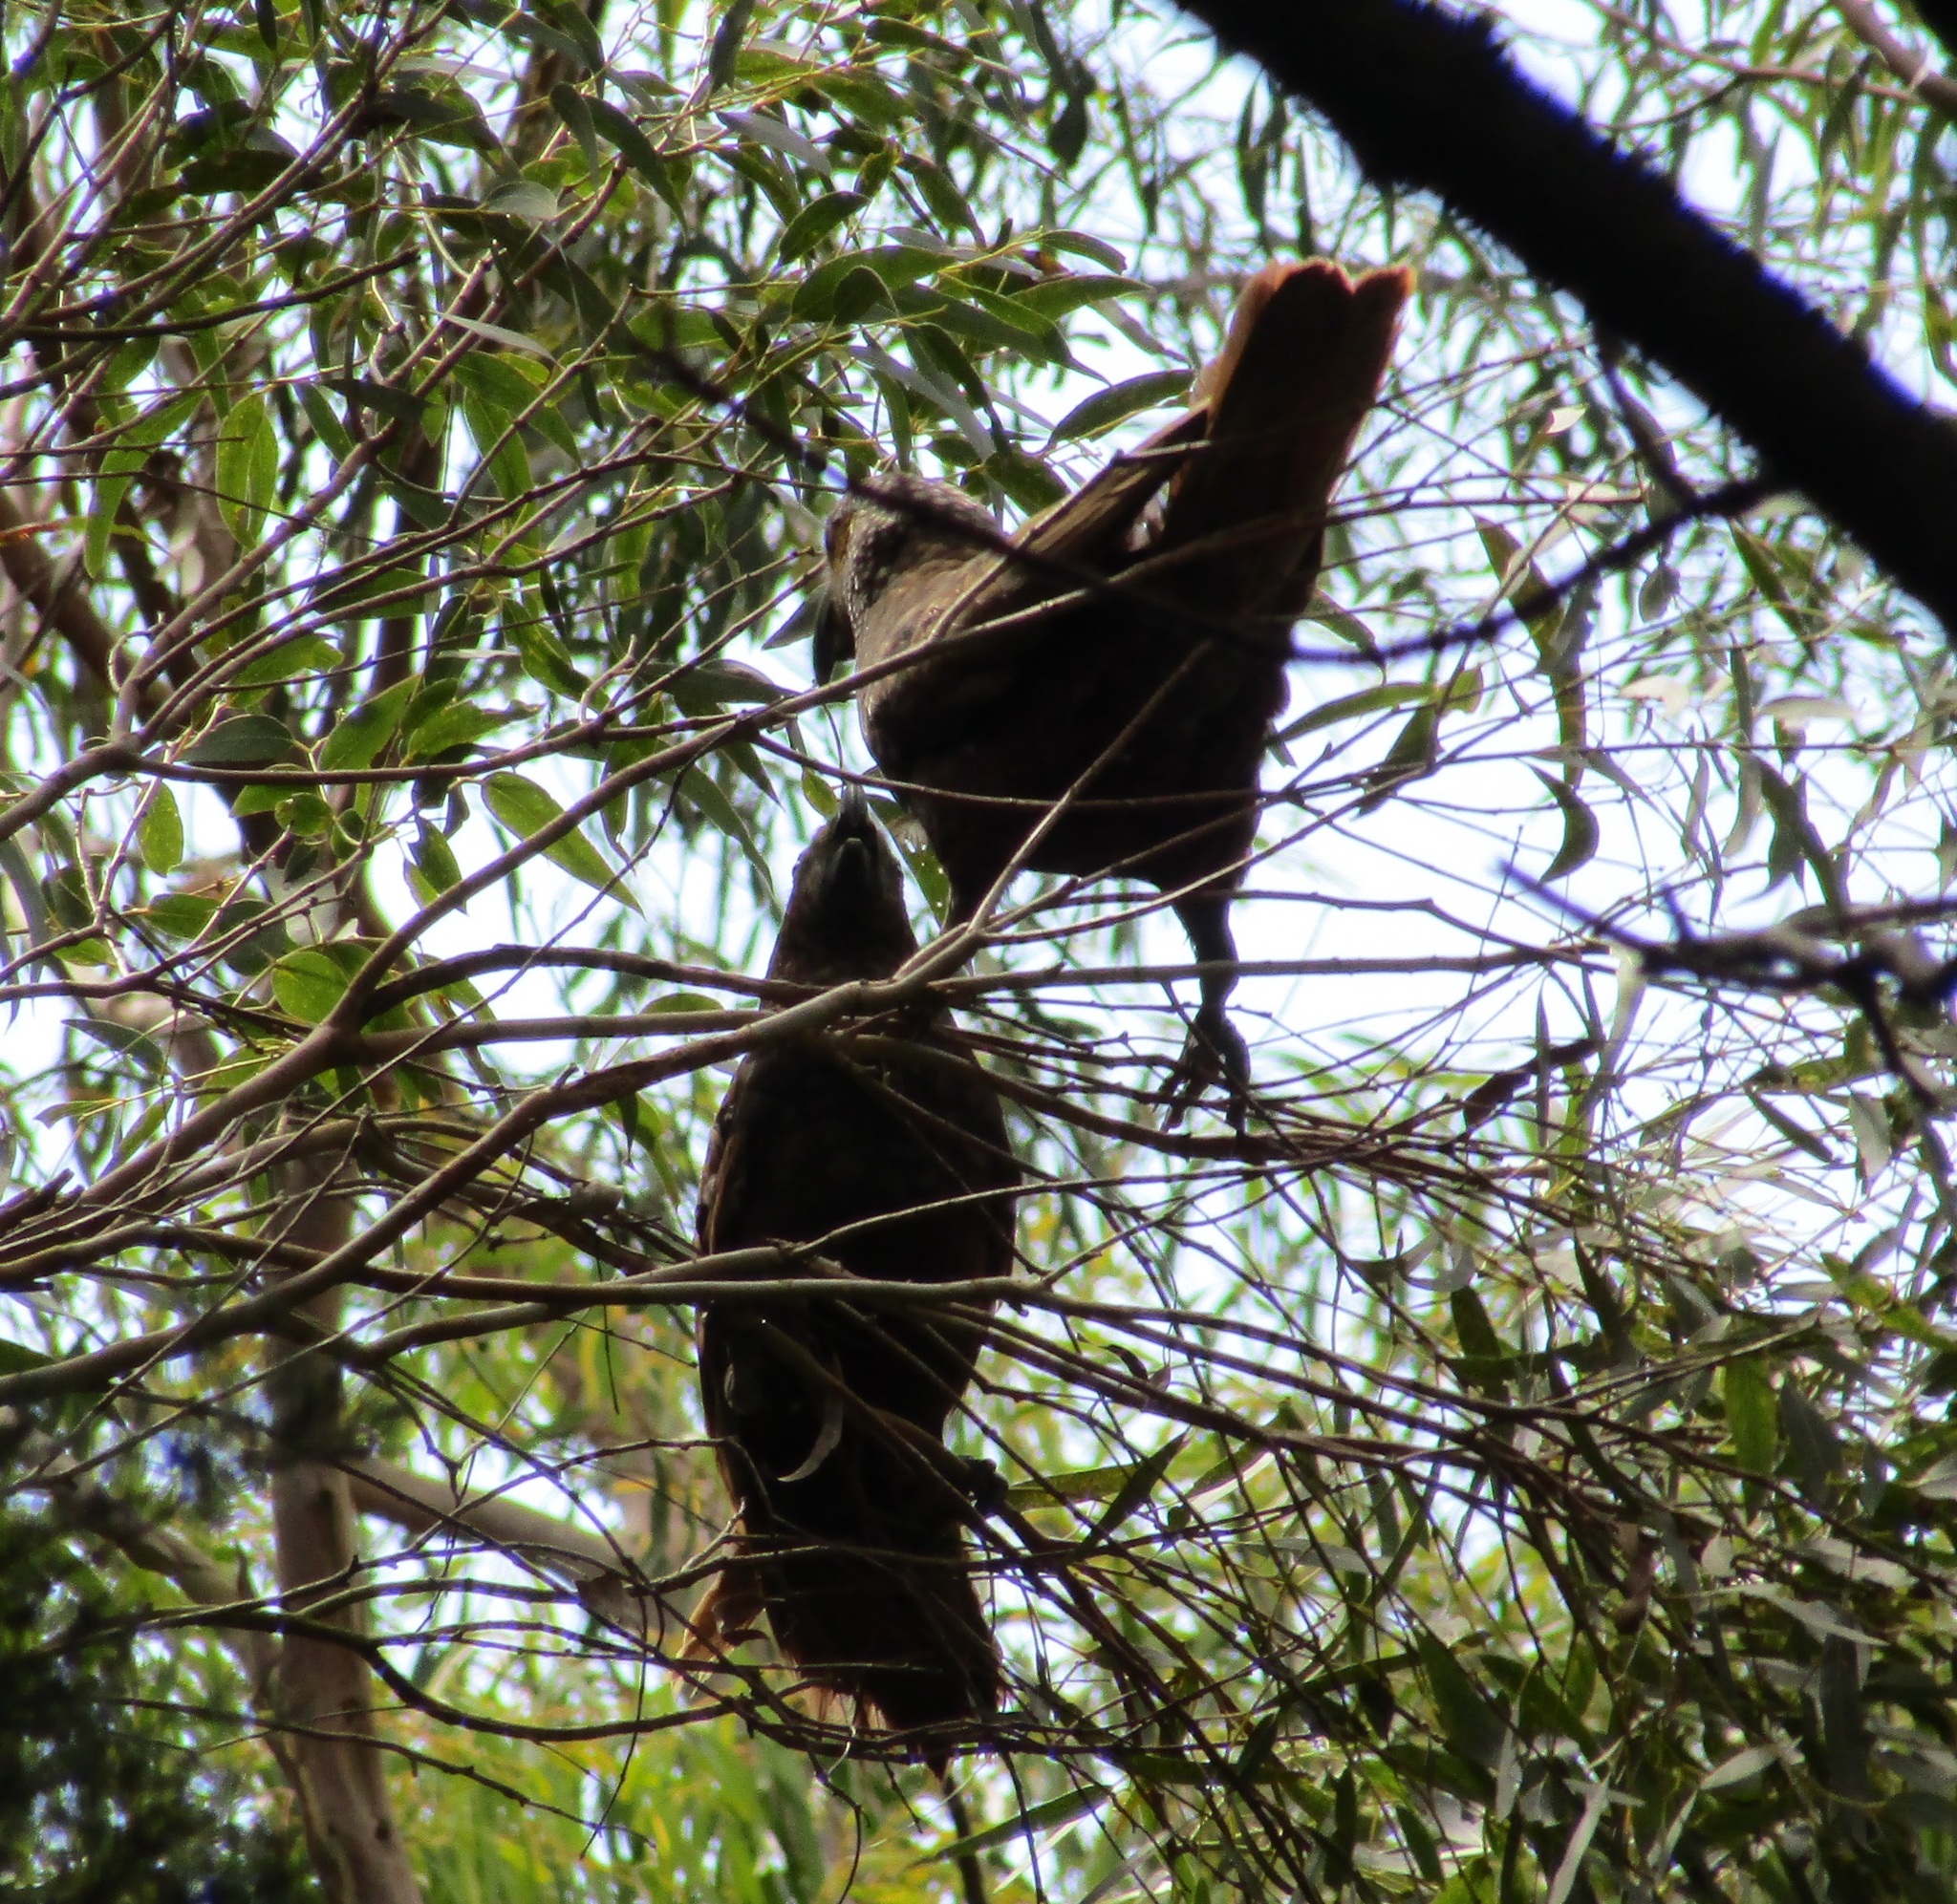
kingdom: Animalia
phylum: Chordata
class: Aves
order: Psittaciformes
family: Psittacidae
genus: Nestor
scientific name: Nestor meridionalis
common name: New zealand kaka
